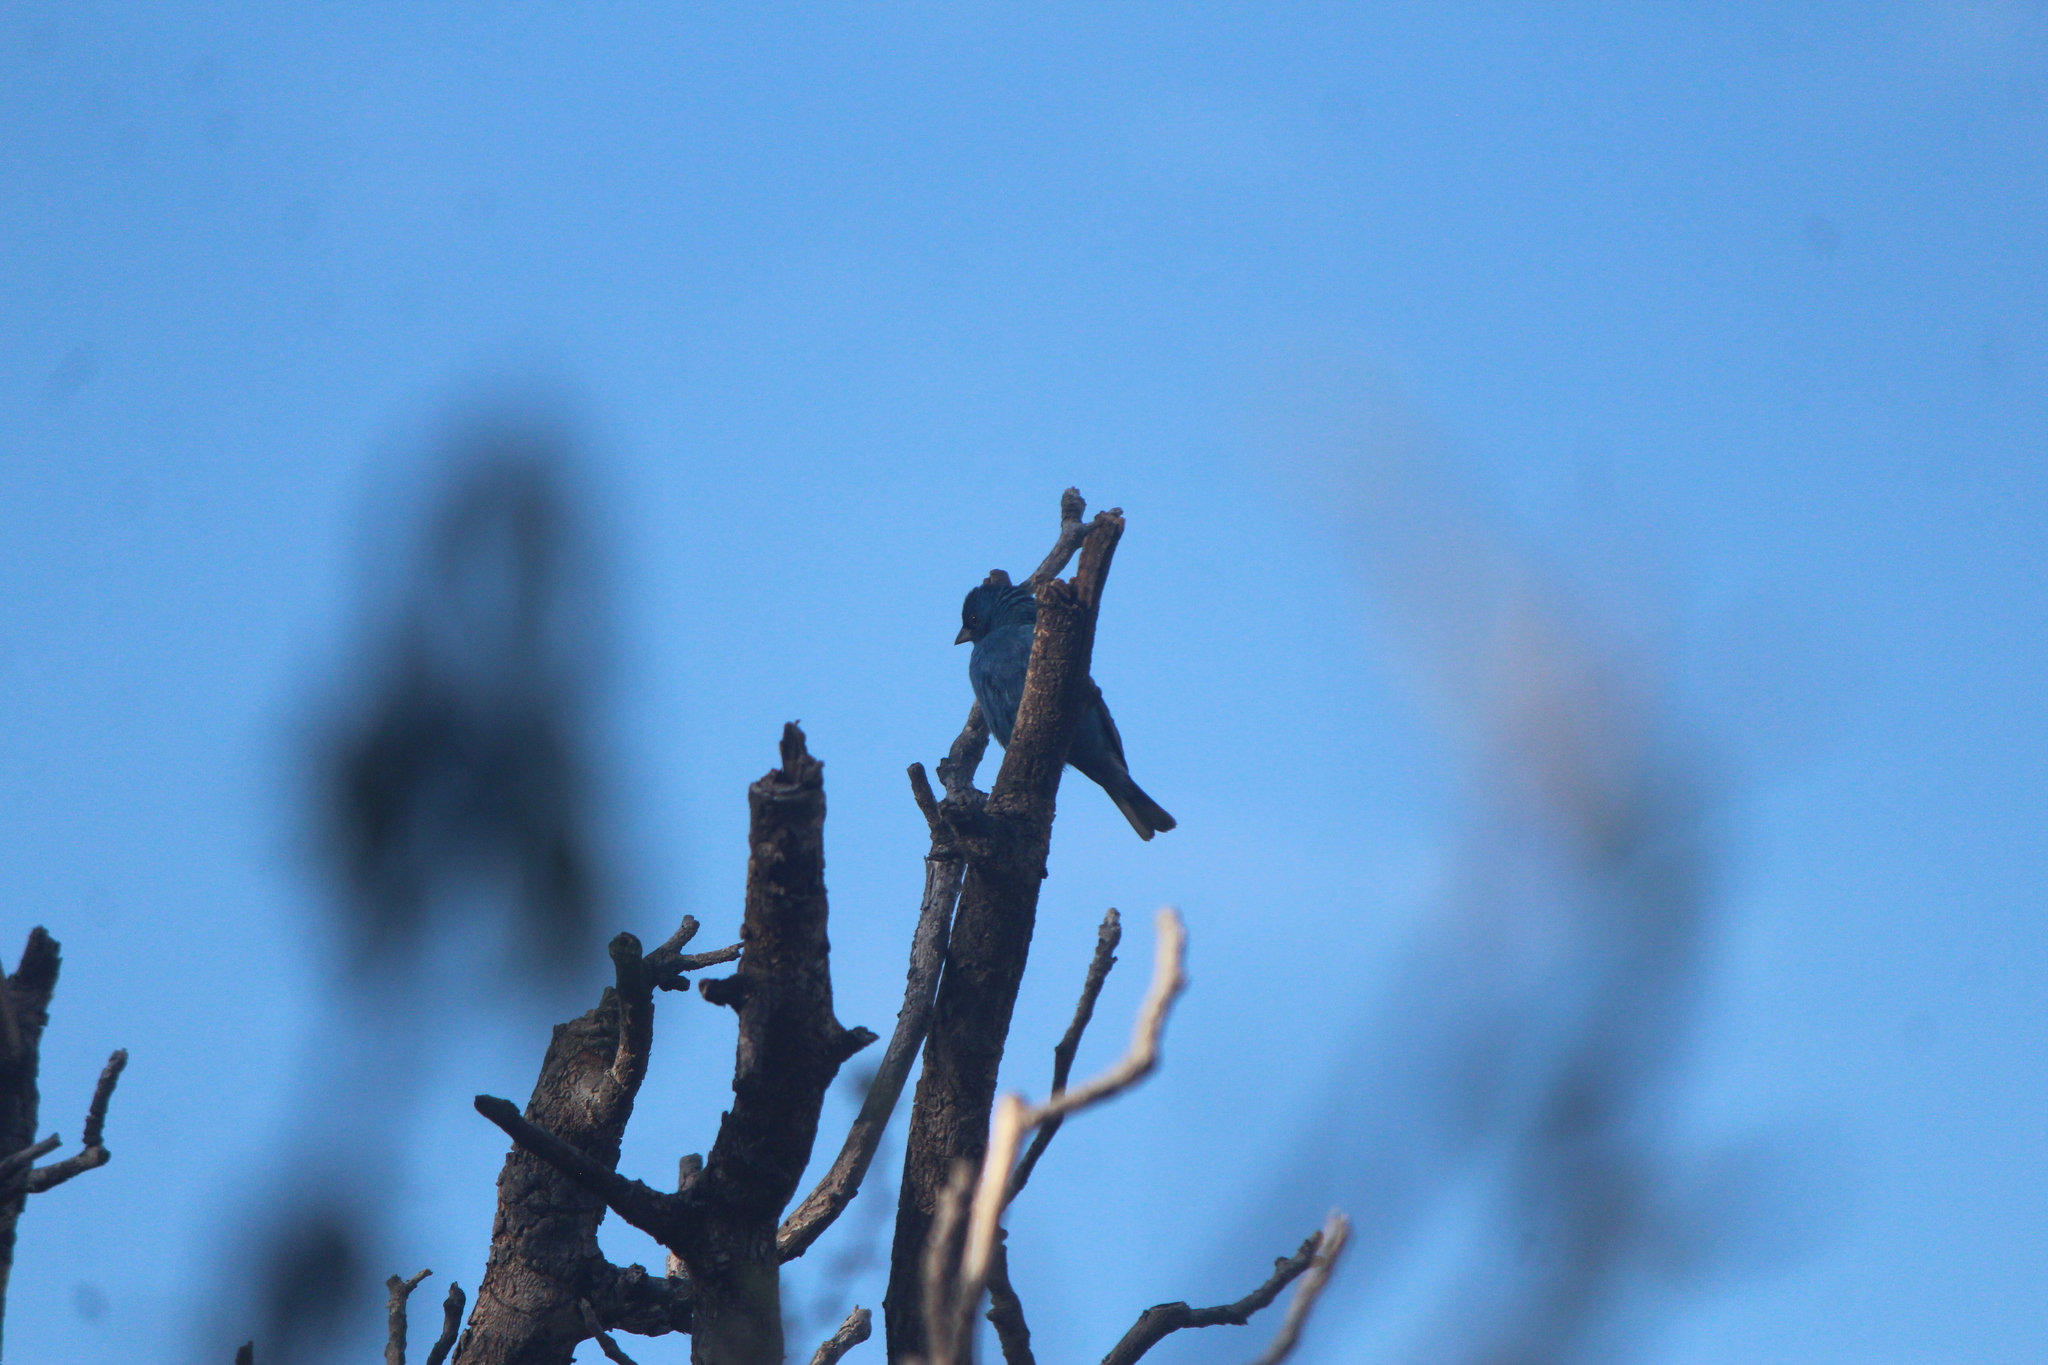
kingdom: Animalia
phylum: Chordata
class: Aves
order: Passeriformes
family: Cardinalidae
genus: Passerina
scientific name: Passerina cyanea
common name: Indigo bunting
